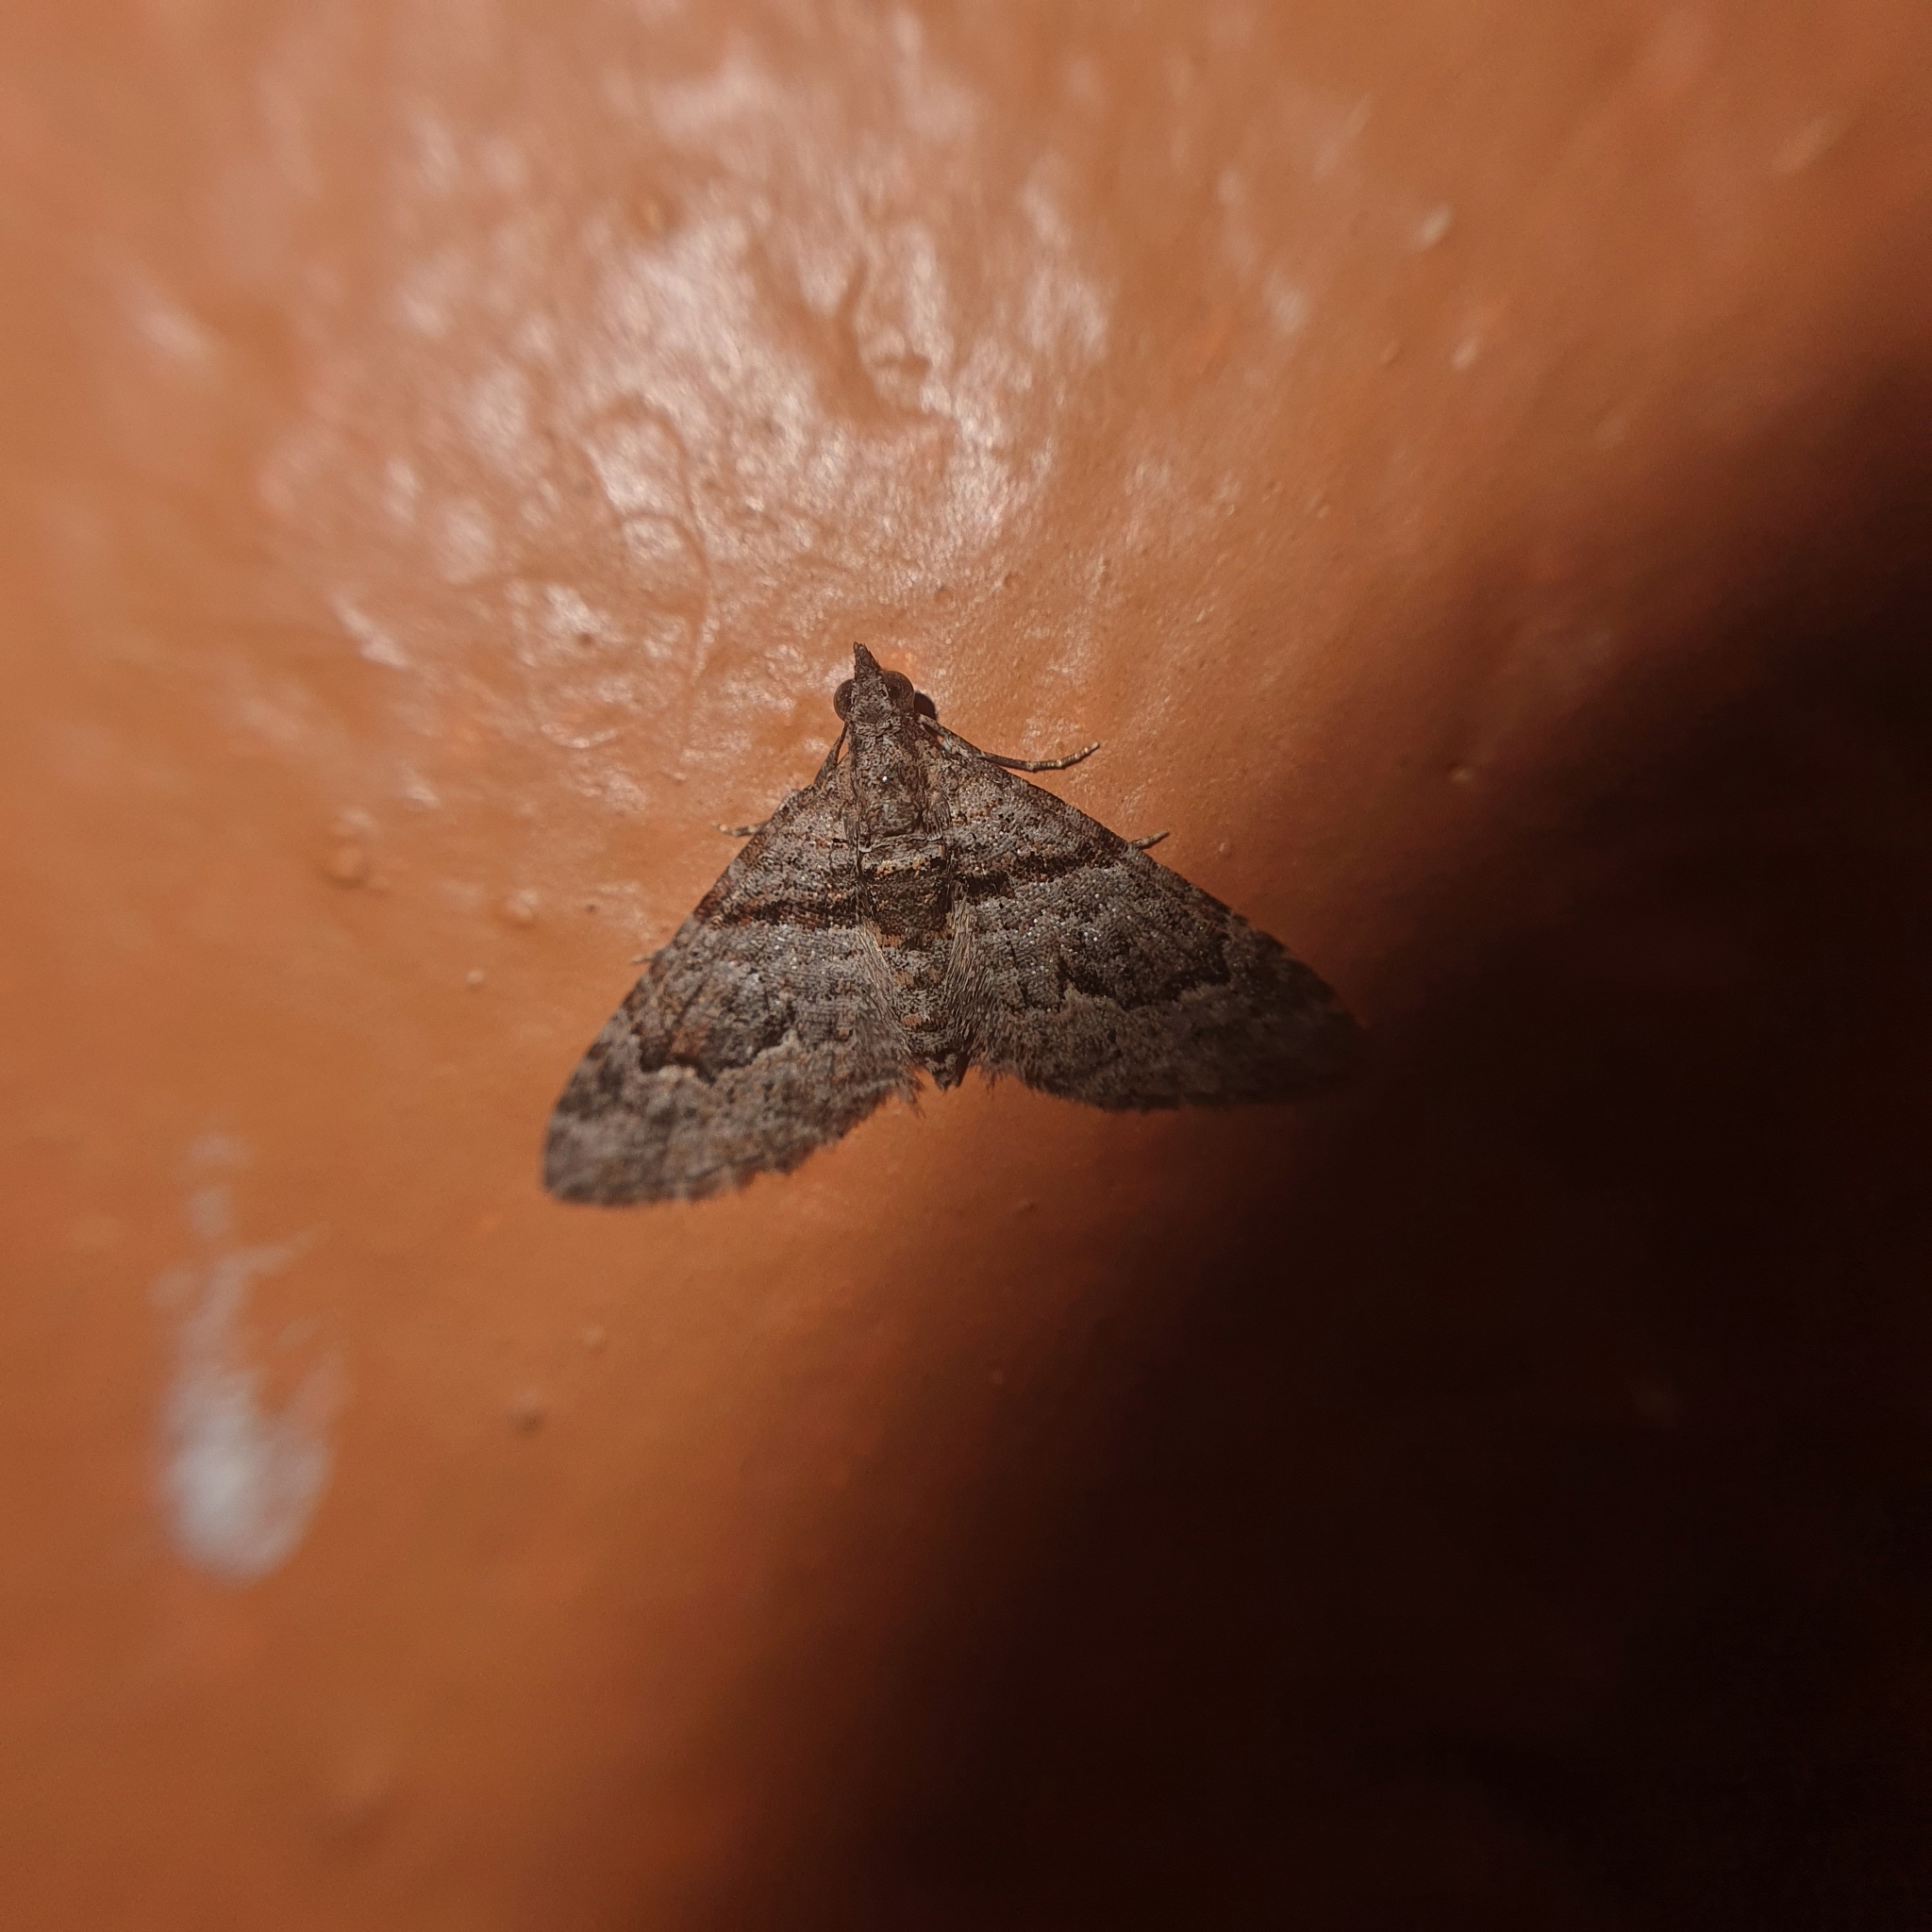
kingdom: Animalia
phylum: Arthropoda
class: Insecta
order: Lepidoptera
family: Geometridae
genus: Phrissogonus
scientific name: Phrissogonus laticostata
